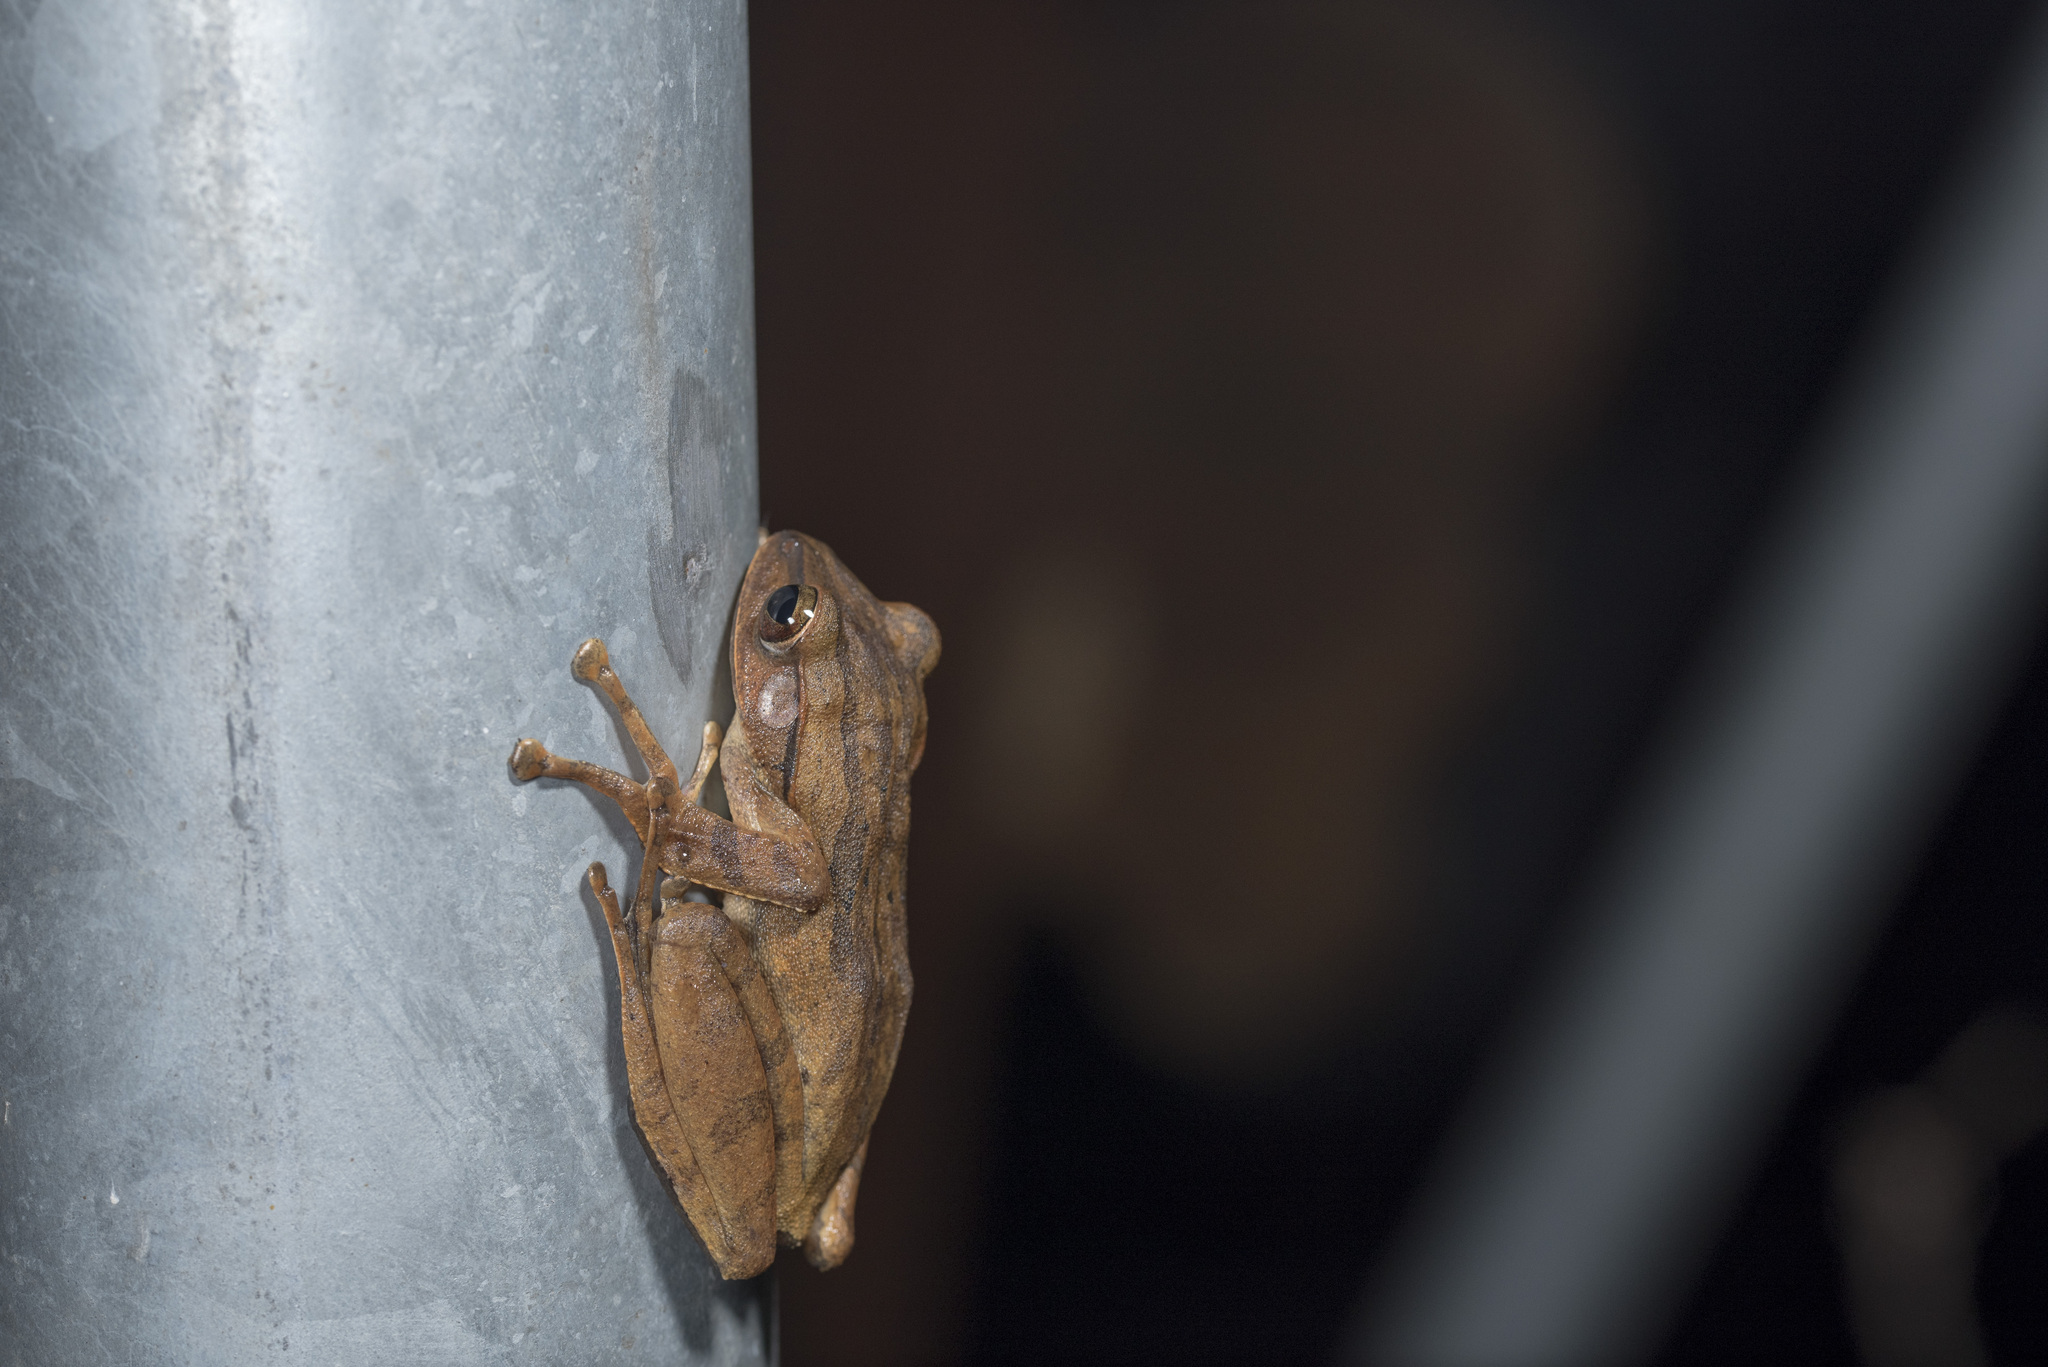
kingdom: Animalia
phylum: Chordata
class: Amphibia
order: Anura
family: Rhacophoridae
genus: Polypedates
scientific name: Polypedates braueri
